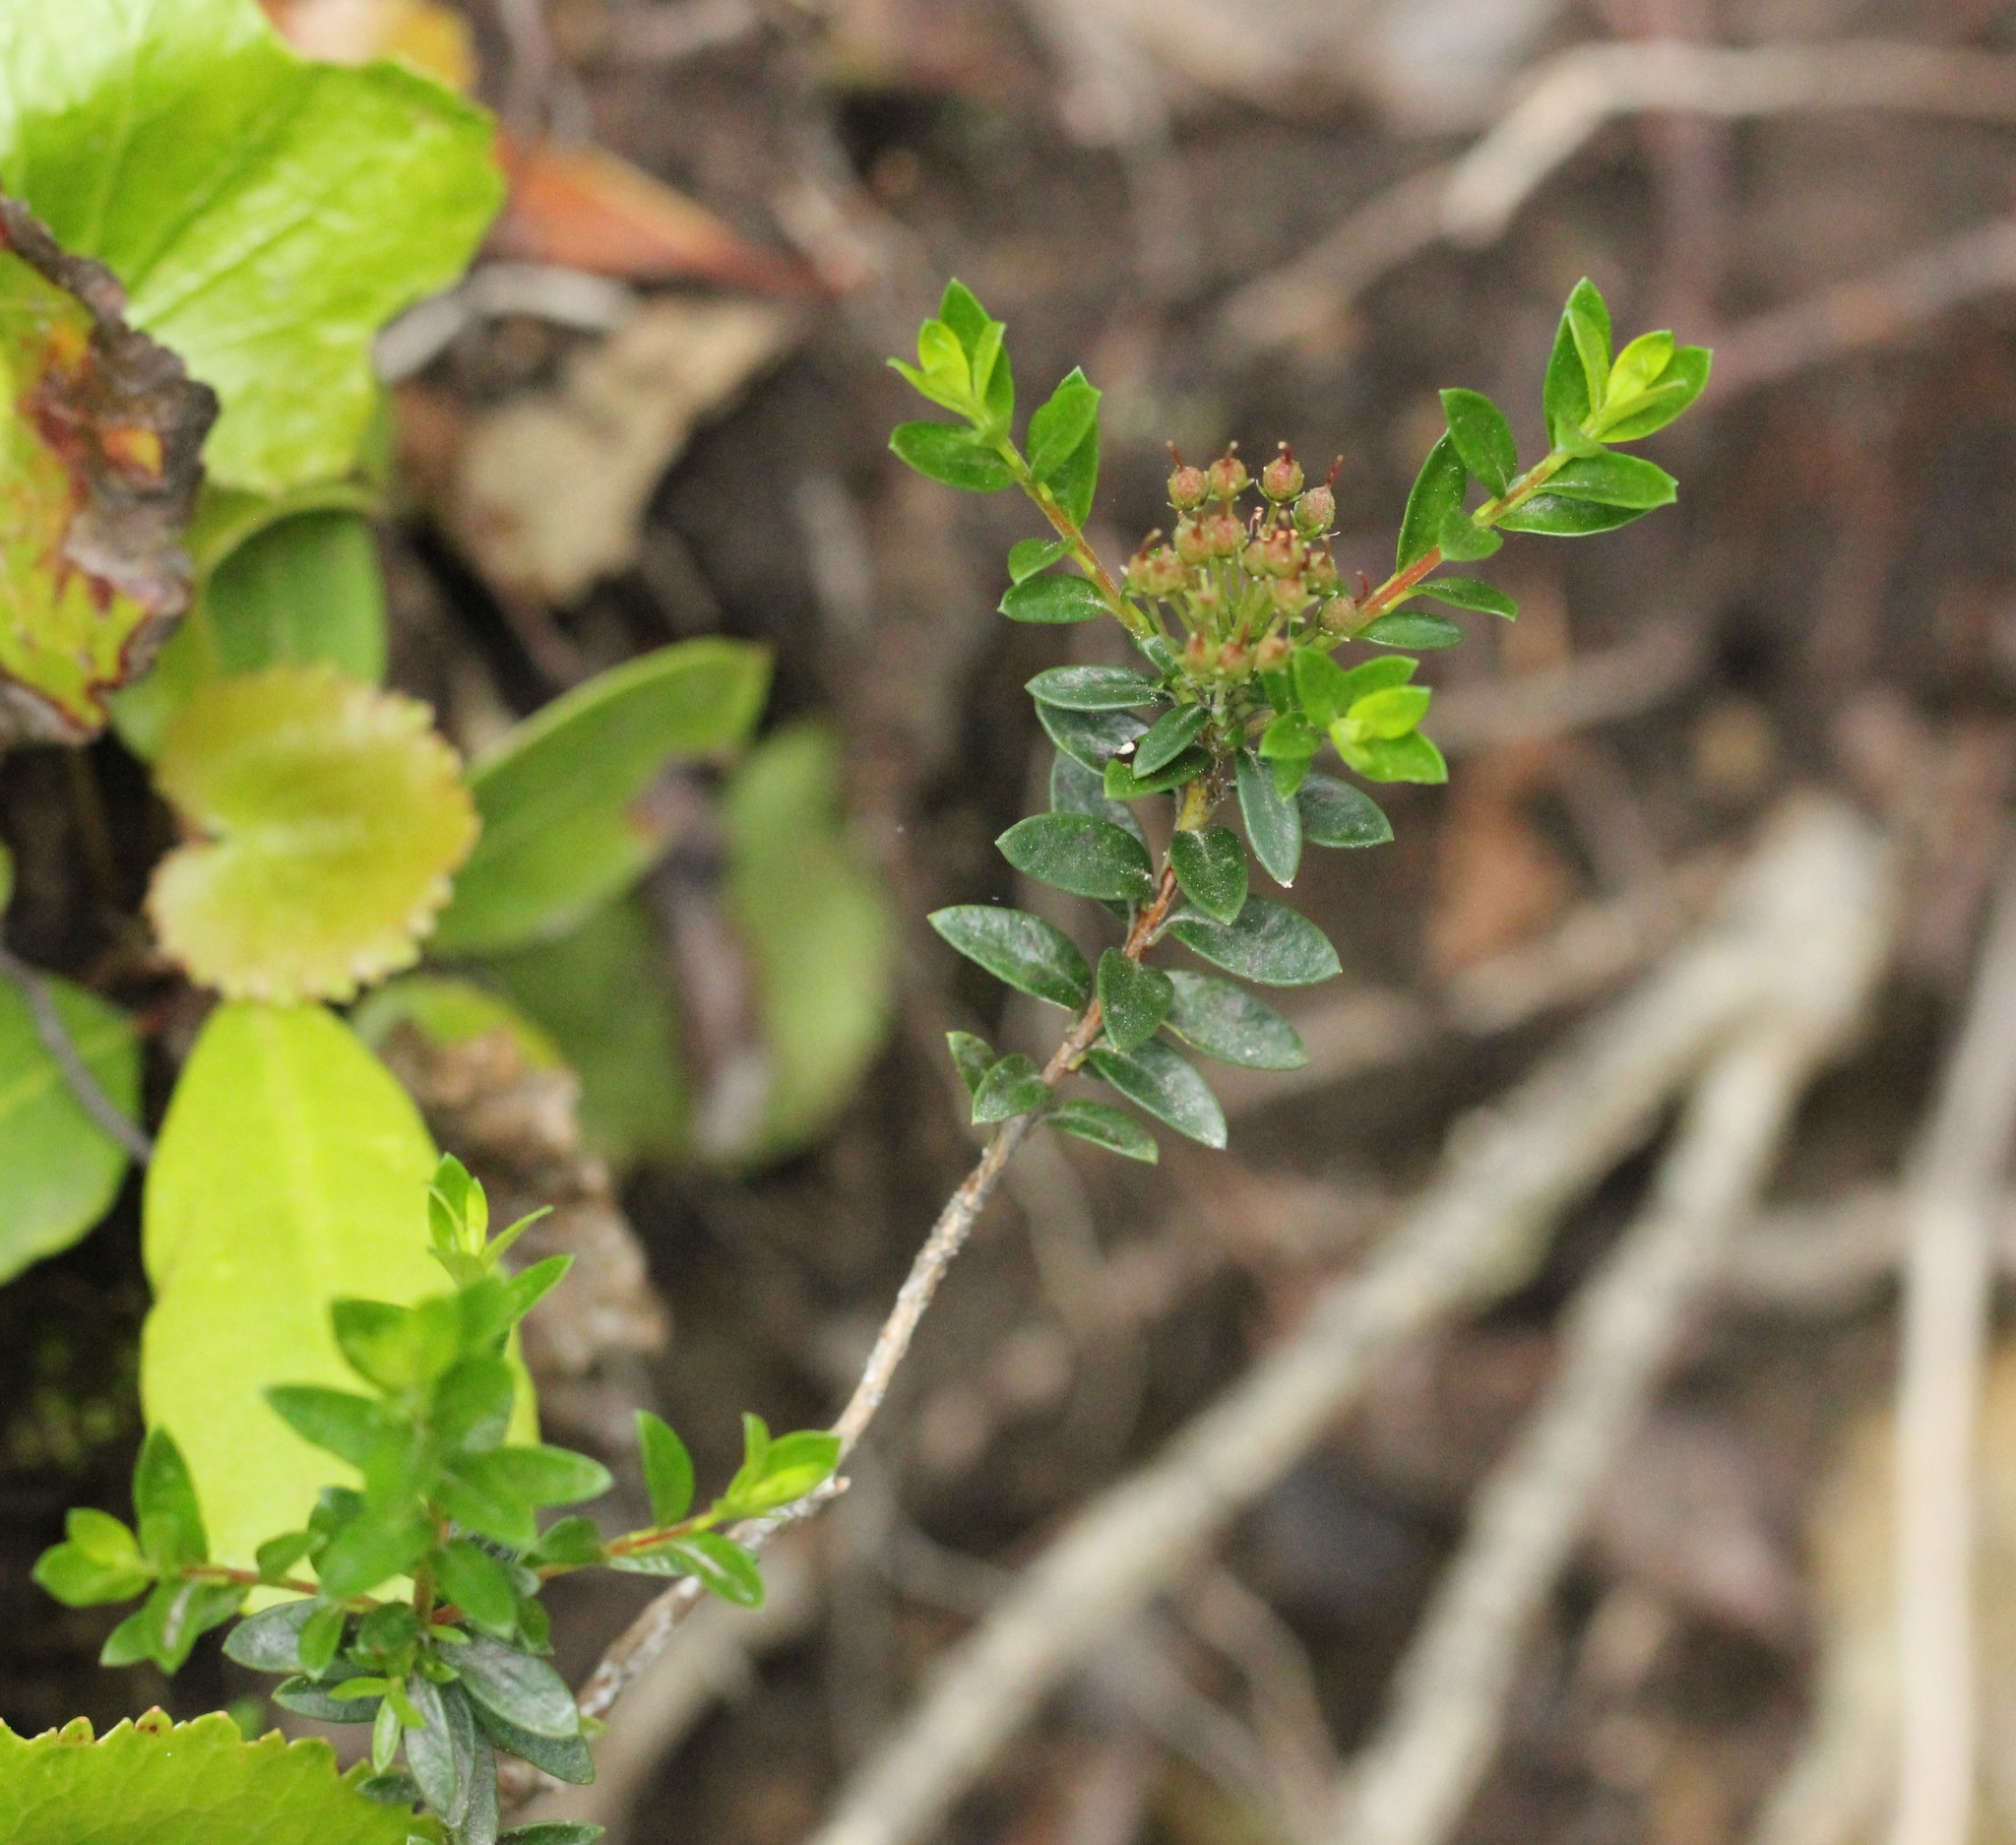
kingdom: Plantae
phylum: Tracheophyta
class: Magnoliopsida
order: Ericales
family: Ericaceae
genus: Kalmia
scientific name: Kalmia buxifolia
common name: Sandmyrtle
